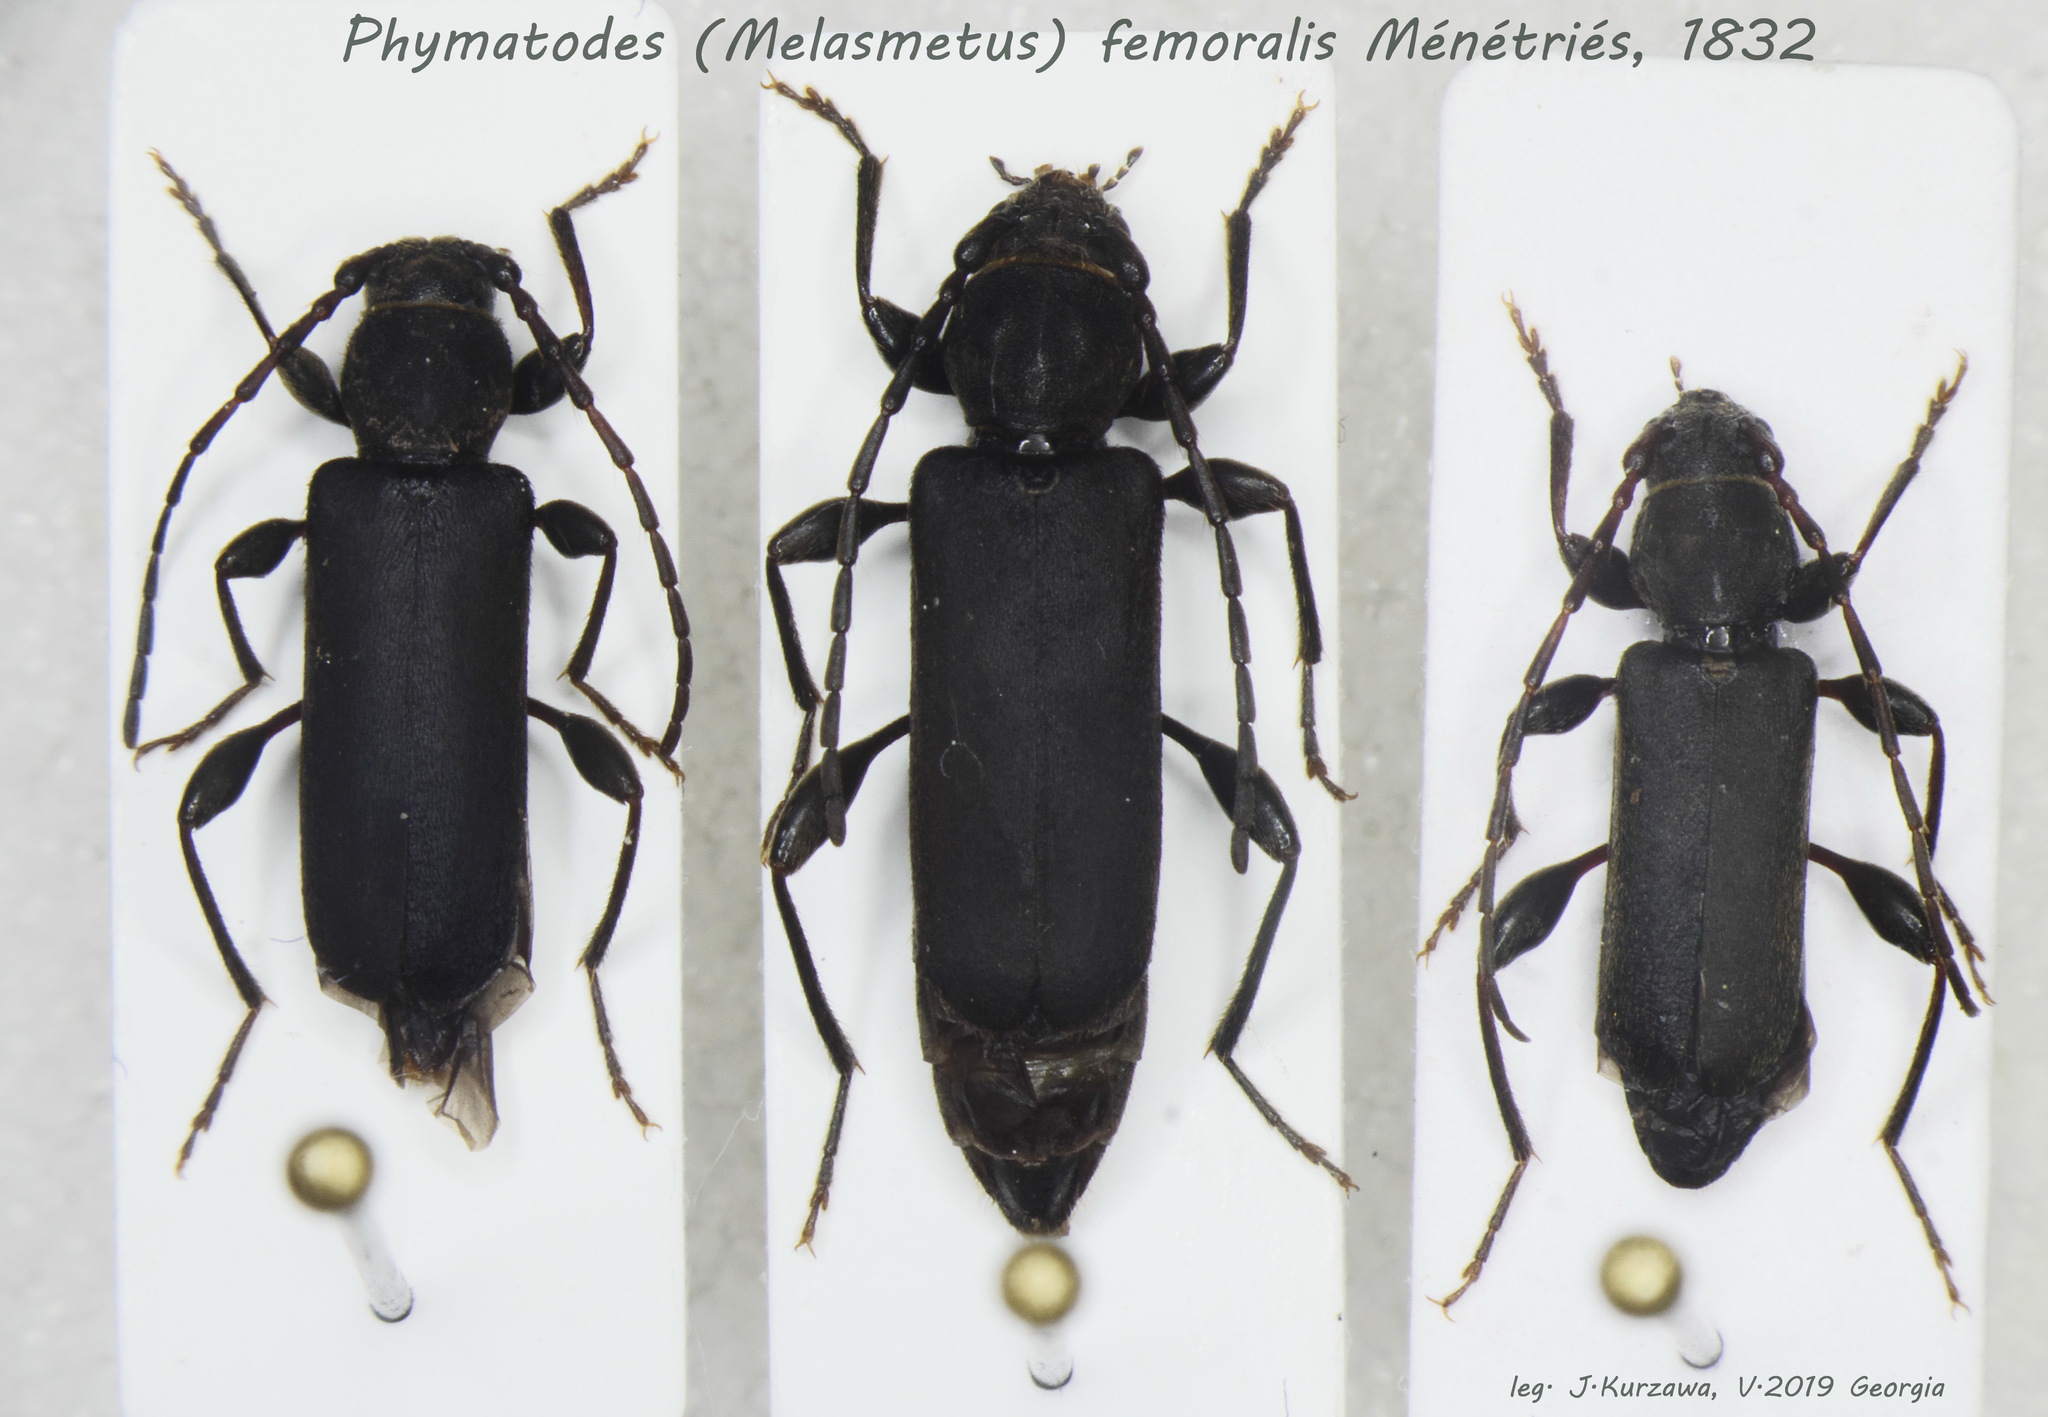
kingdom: Animalia
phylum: Arthropoda
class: Insecta
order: Coleoptera
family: Cerambycidae
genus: Phymatodes
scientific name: Phymatodes femoralis
